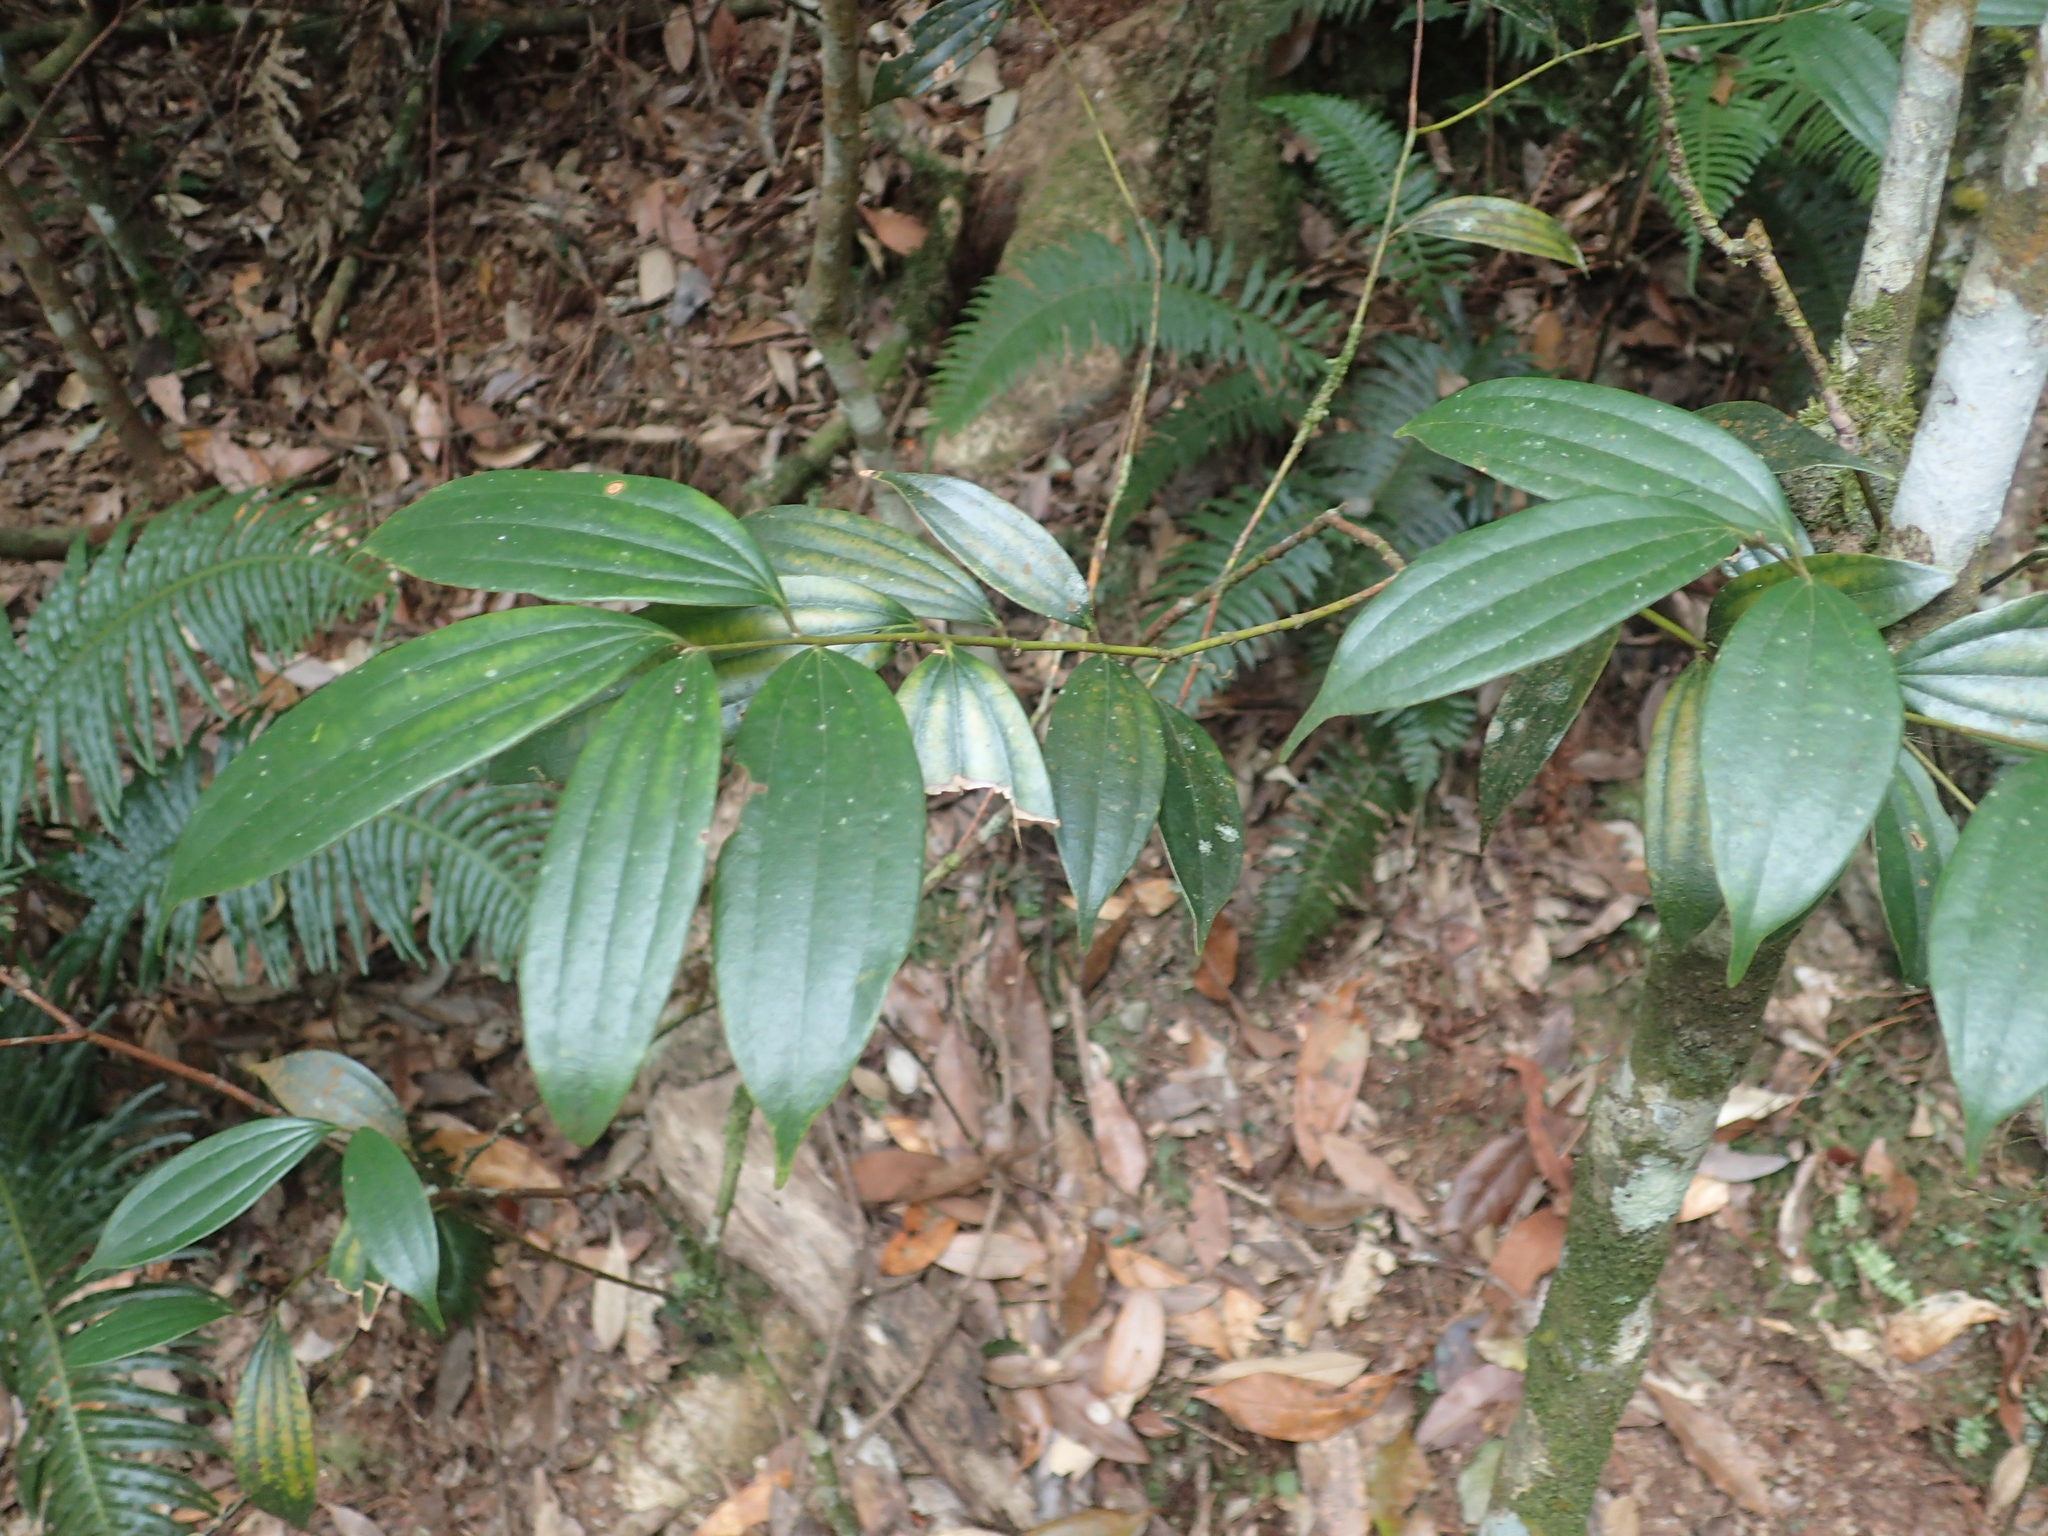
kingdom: Plantae
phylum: Tracheophyta
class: Magnoliopsida
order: Laurales
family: Lauraceae
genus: Cinnamomum
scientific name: Cinnamomum subavenium
